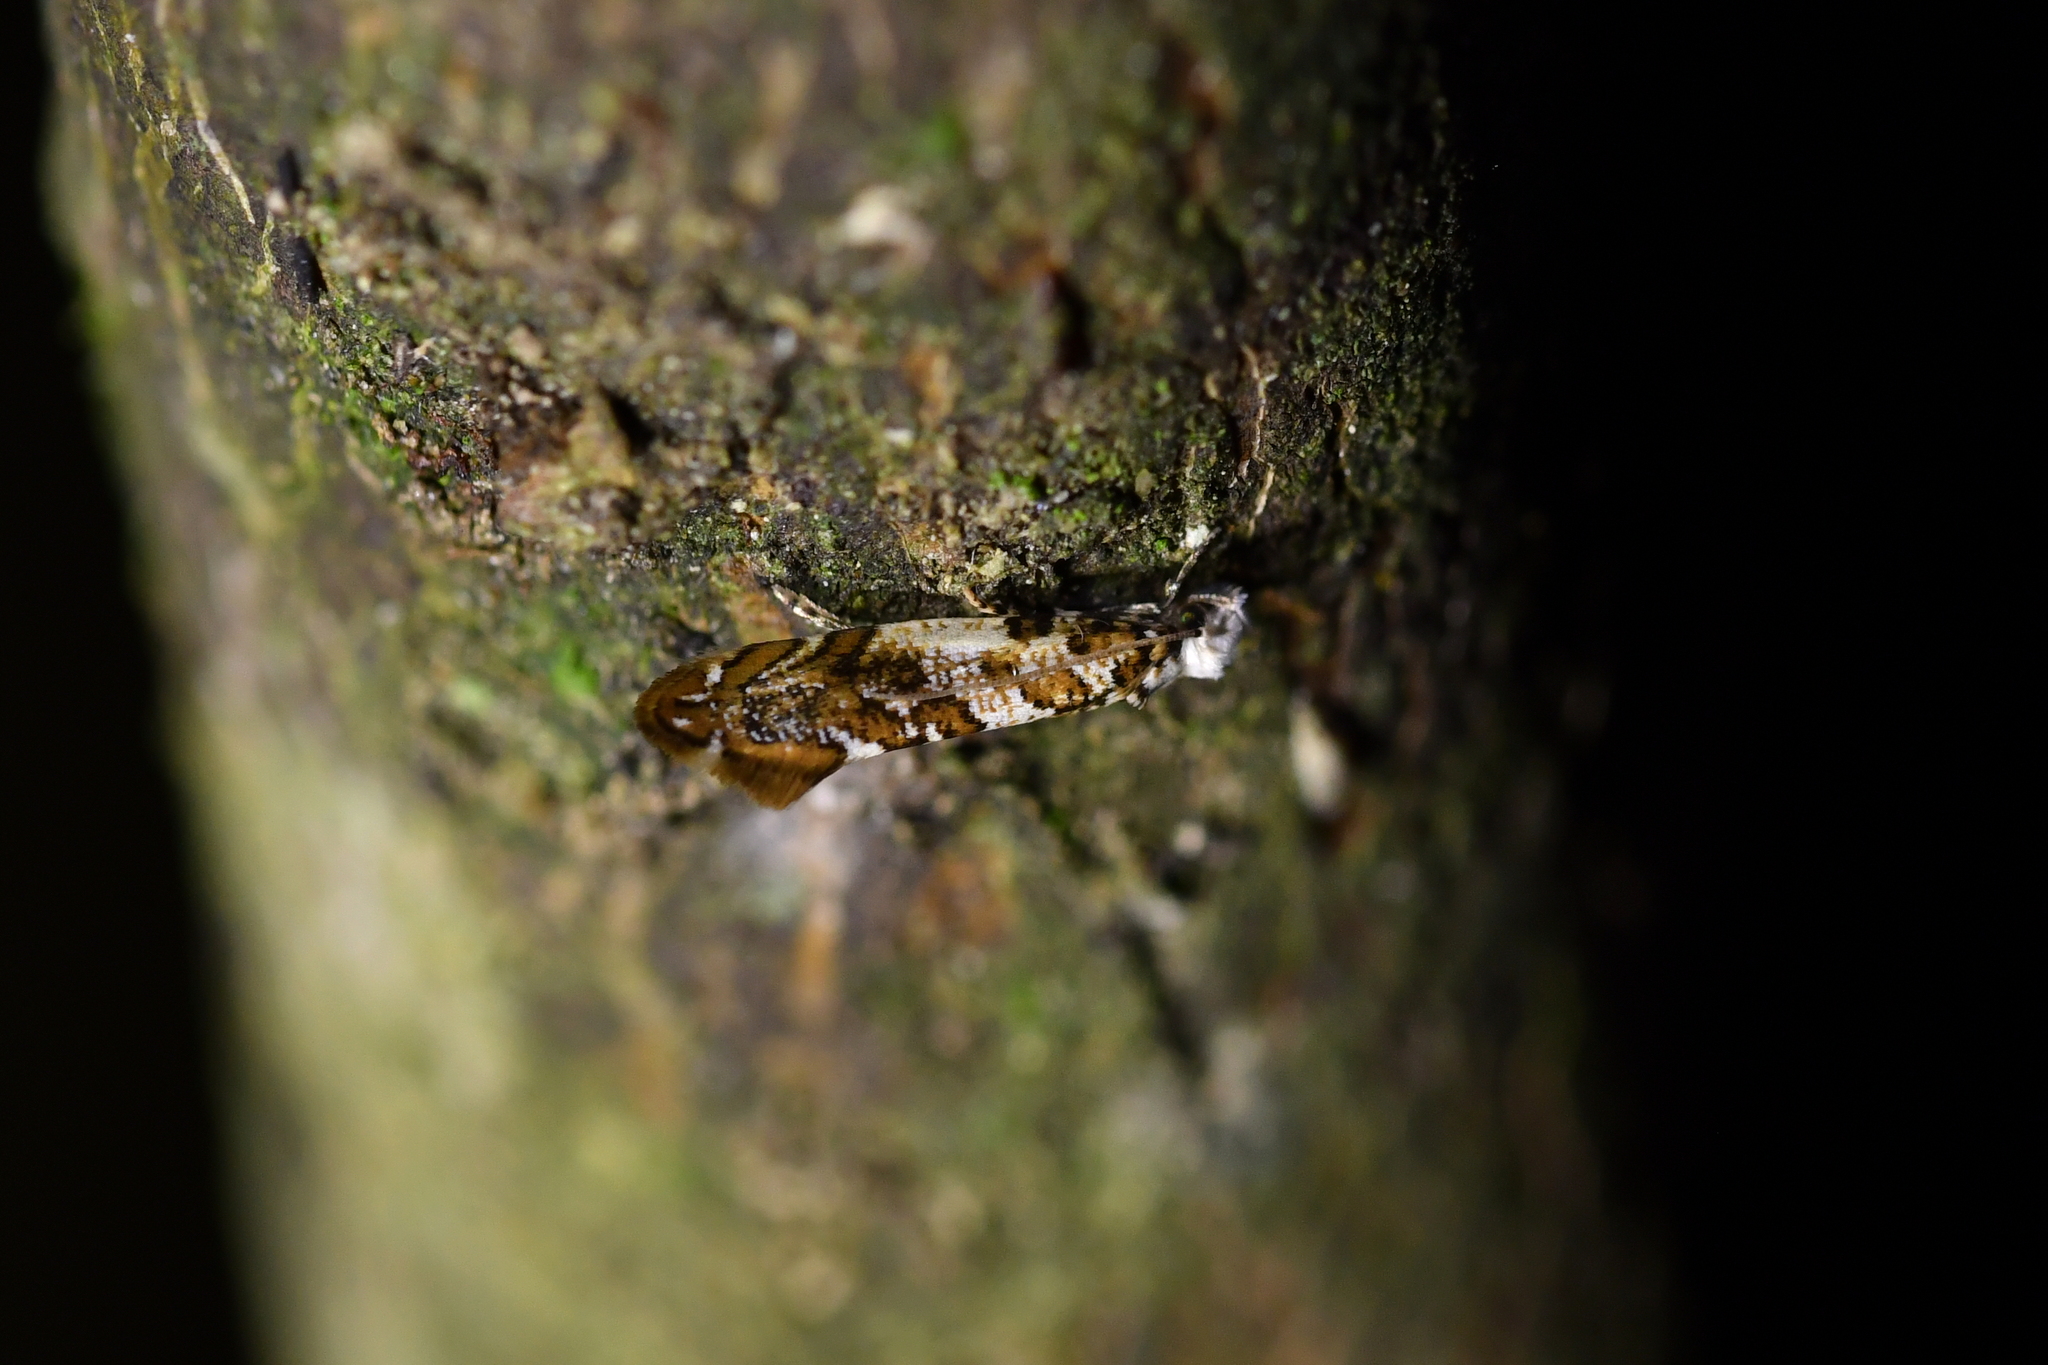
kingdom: Animalia
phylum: Arthropoda
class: Insecta
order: Lepidoptera
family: Tineidae
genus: Eschatotypa
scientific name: Eschatotypa derogatella
